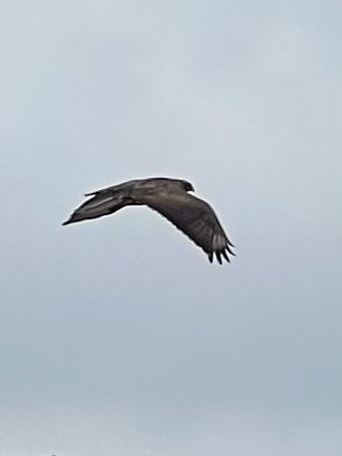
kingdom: Animalia
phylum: Chordata
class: Aves
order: Accipitriformes
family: Accipitridae
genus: Buteo
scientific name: Buteo buteo
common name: Common buzzard
